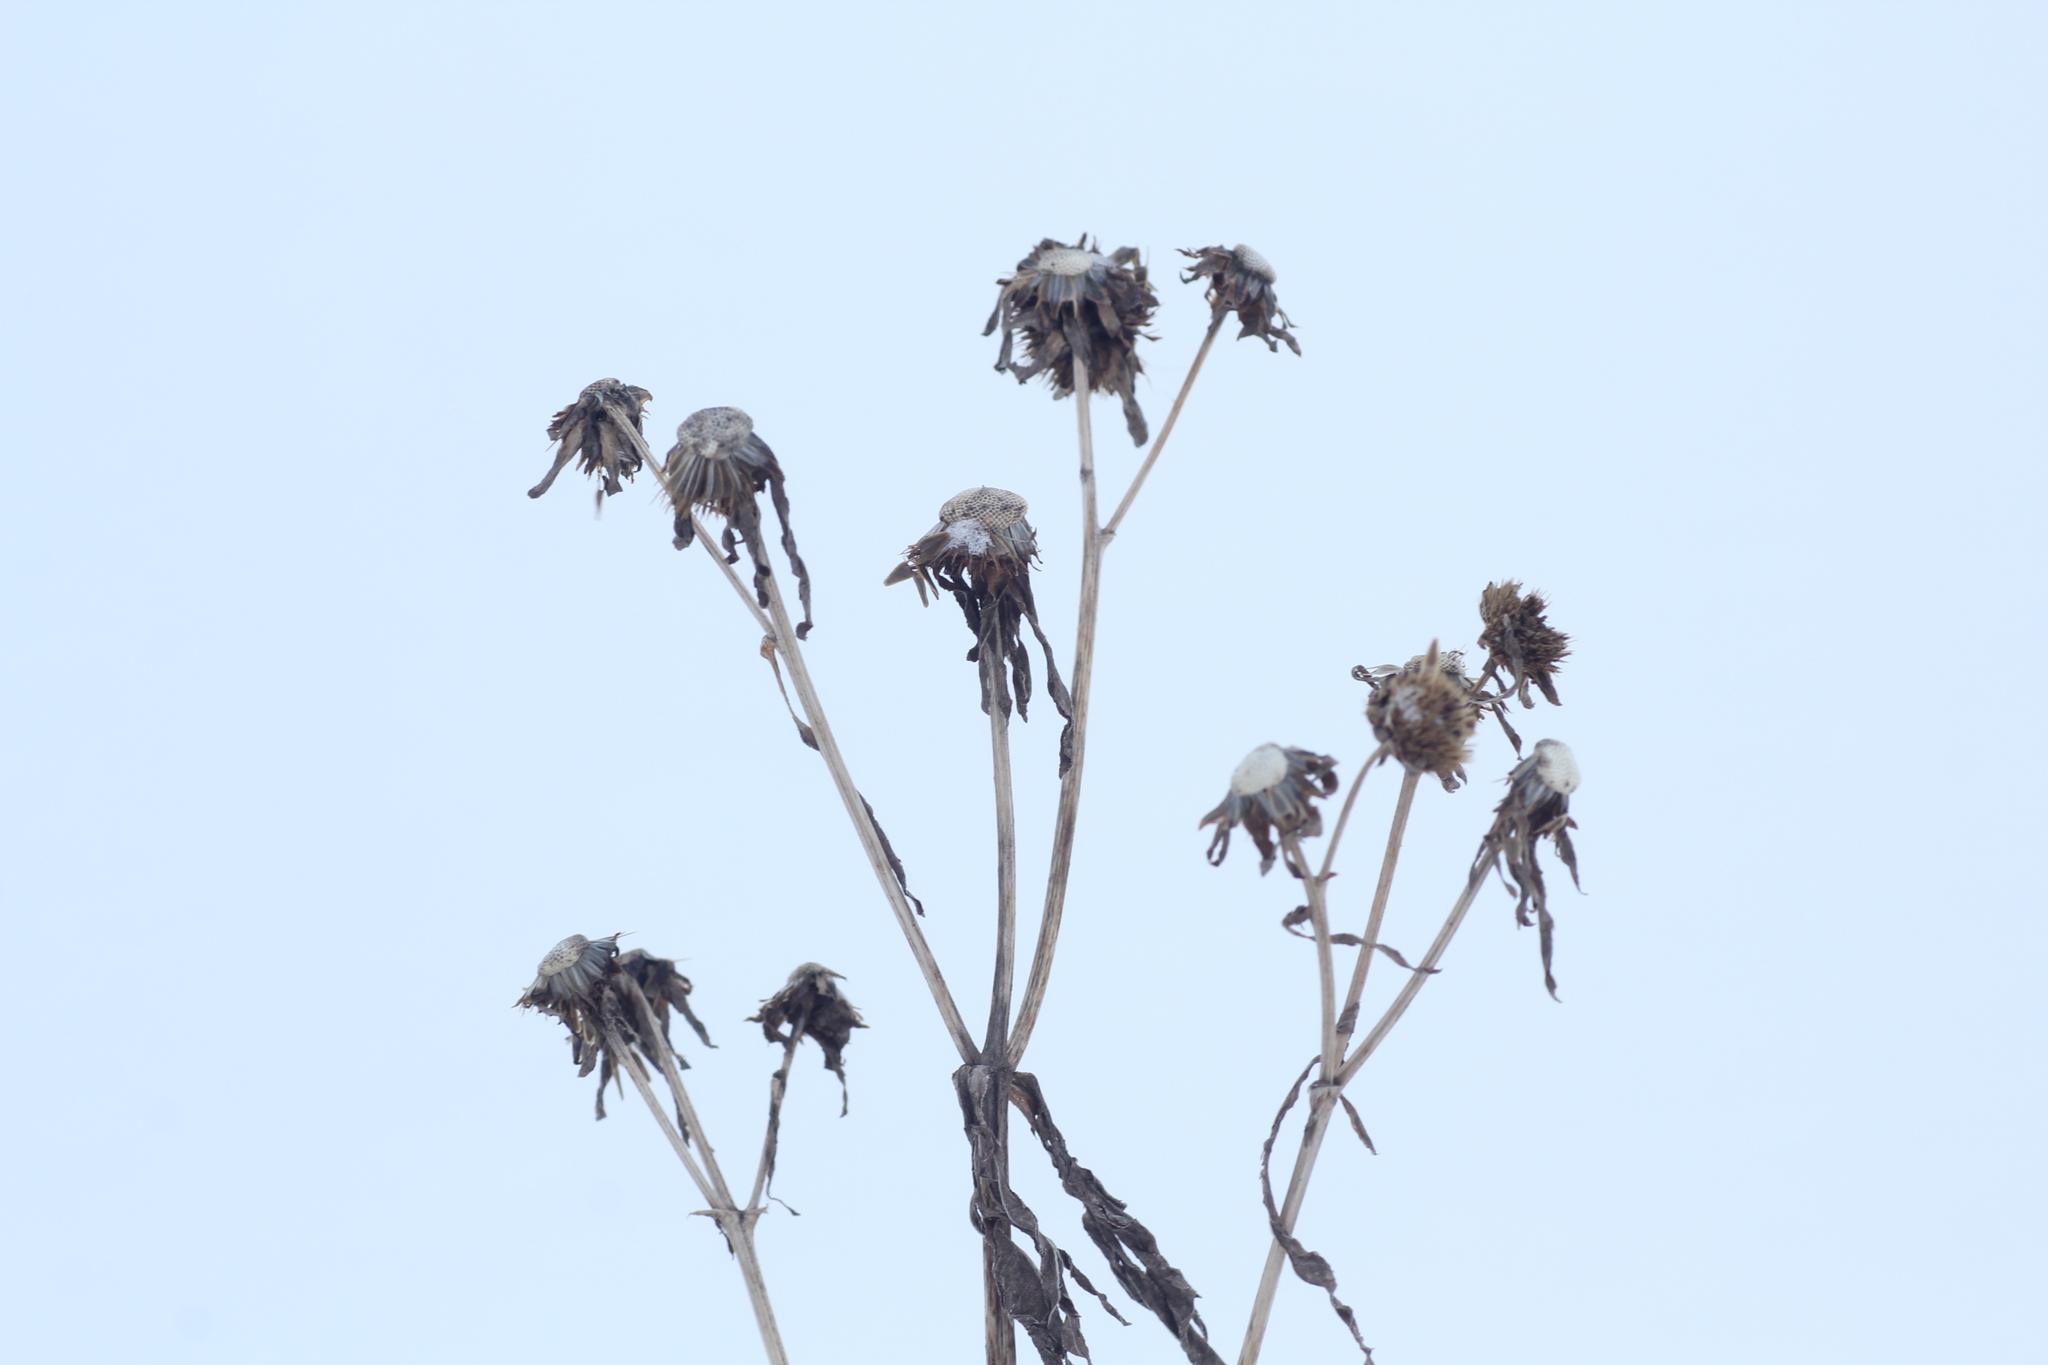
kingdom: Plantae
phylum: Tracheophyta
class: Magnoliopsida
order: Asterales
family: Asteraceae
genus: Bidens
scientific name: Bidens tripartita
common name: Trifid bur-marigold
